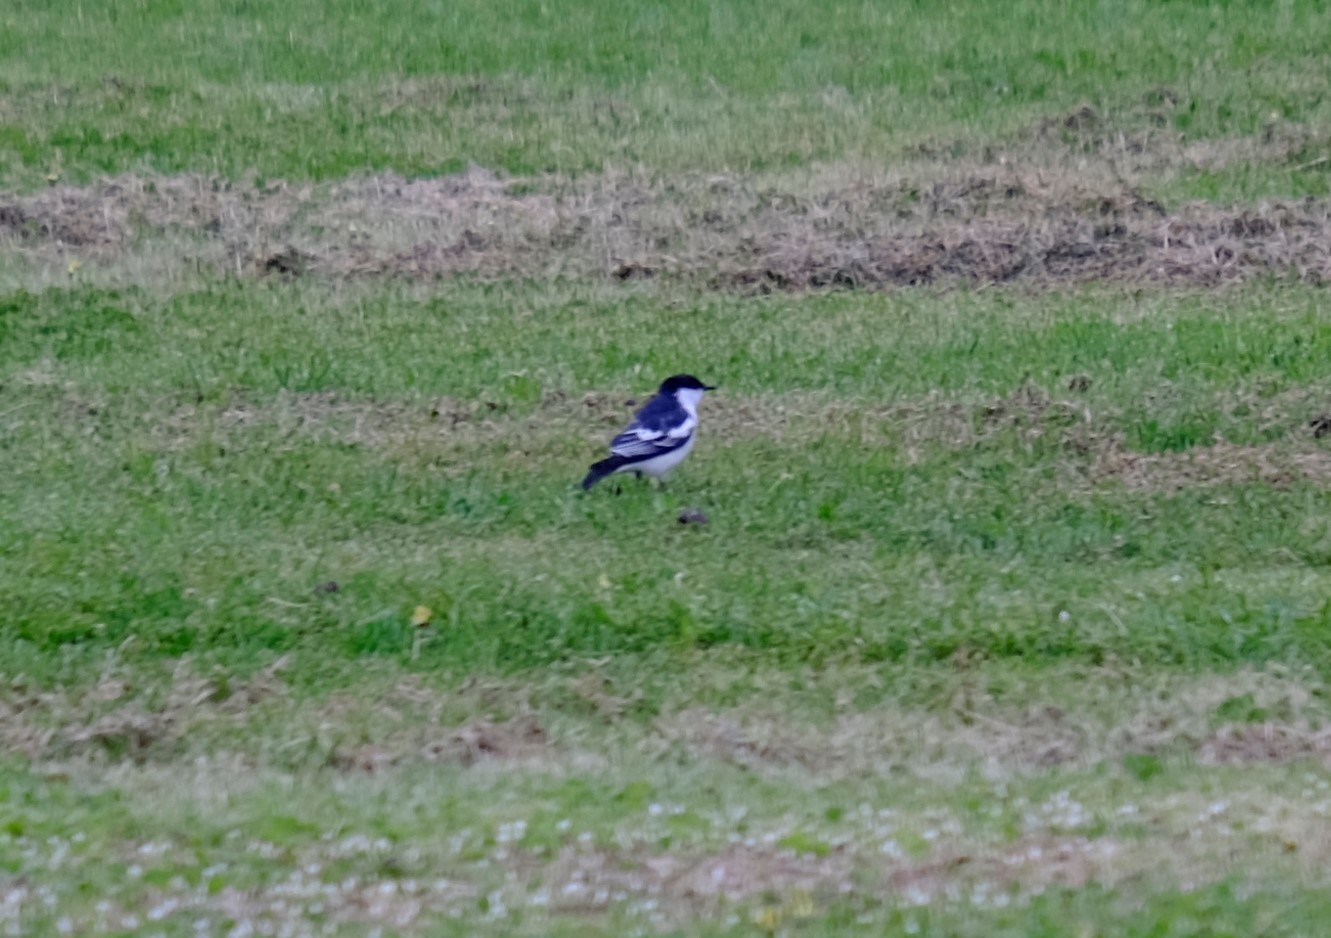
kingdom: Animalia
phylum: Chordata
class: Aves
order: Passeriformes
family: Campephagidae
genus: Lalage
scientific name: Lalage tricolor
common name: White-winged triller
